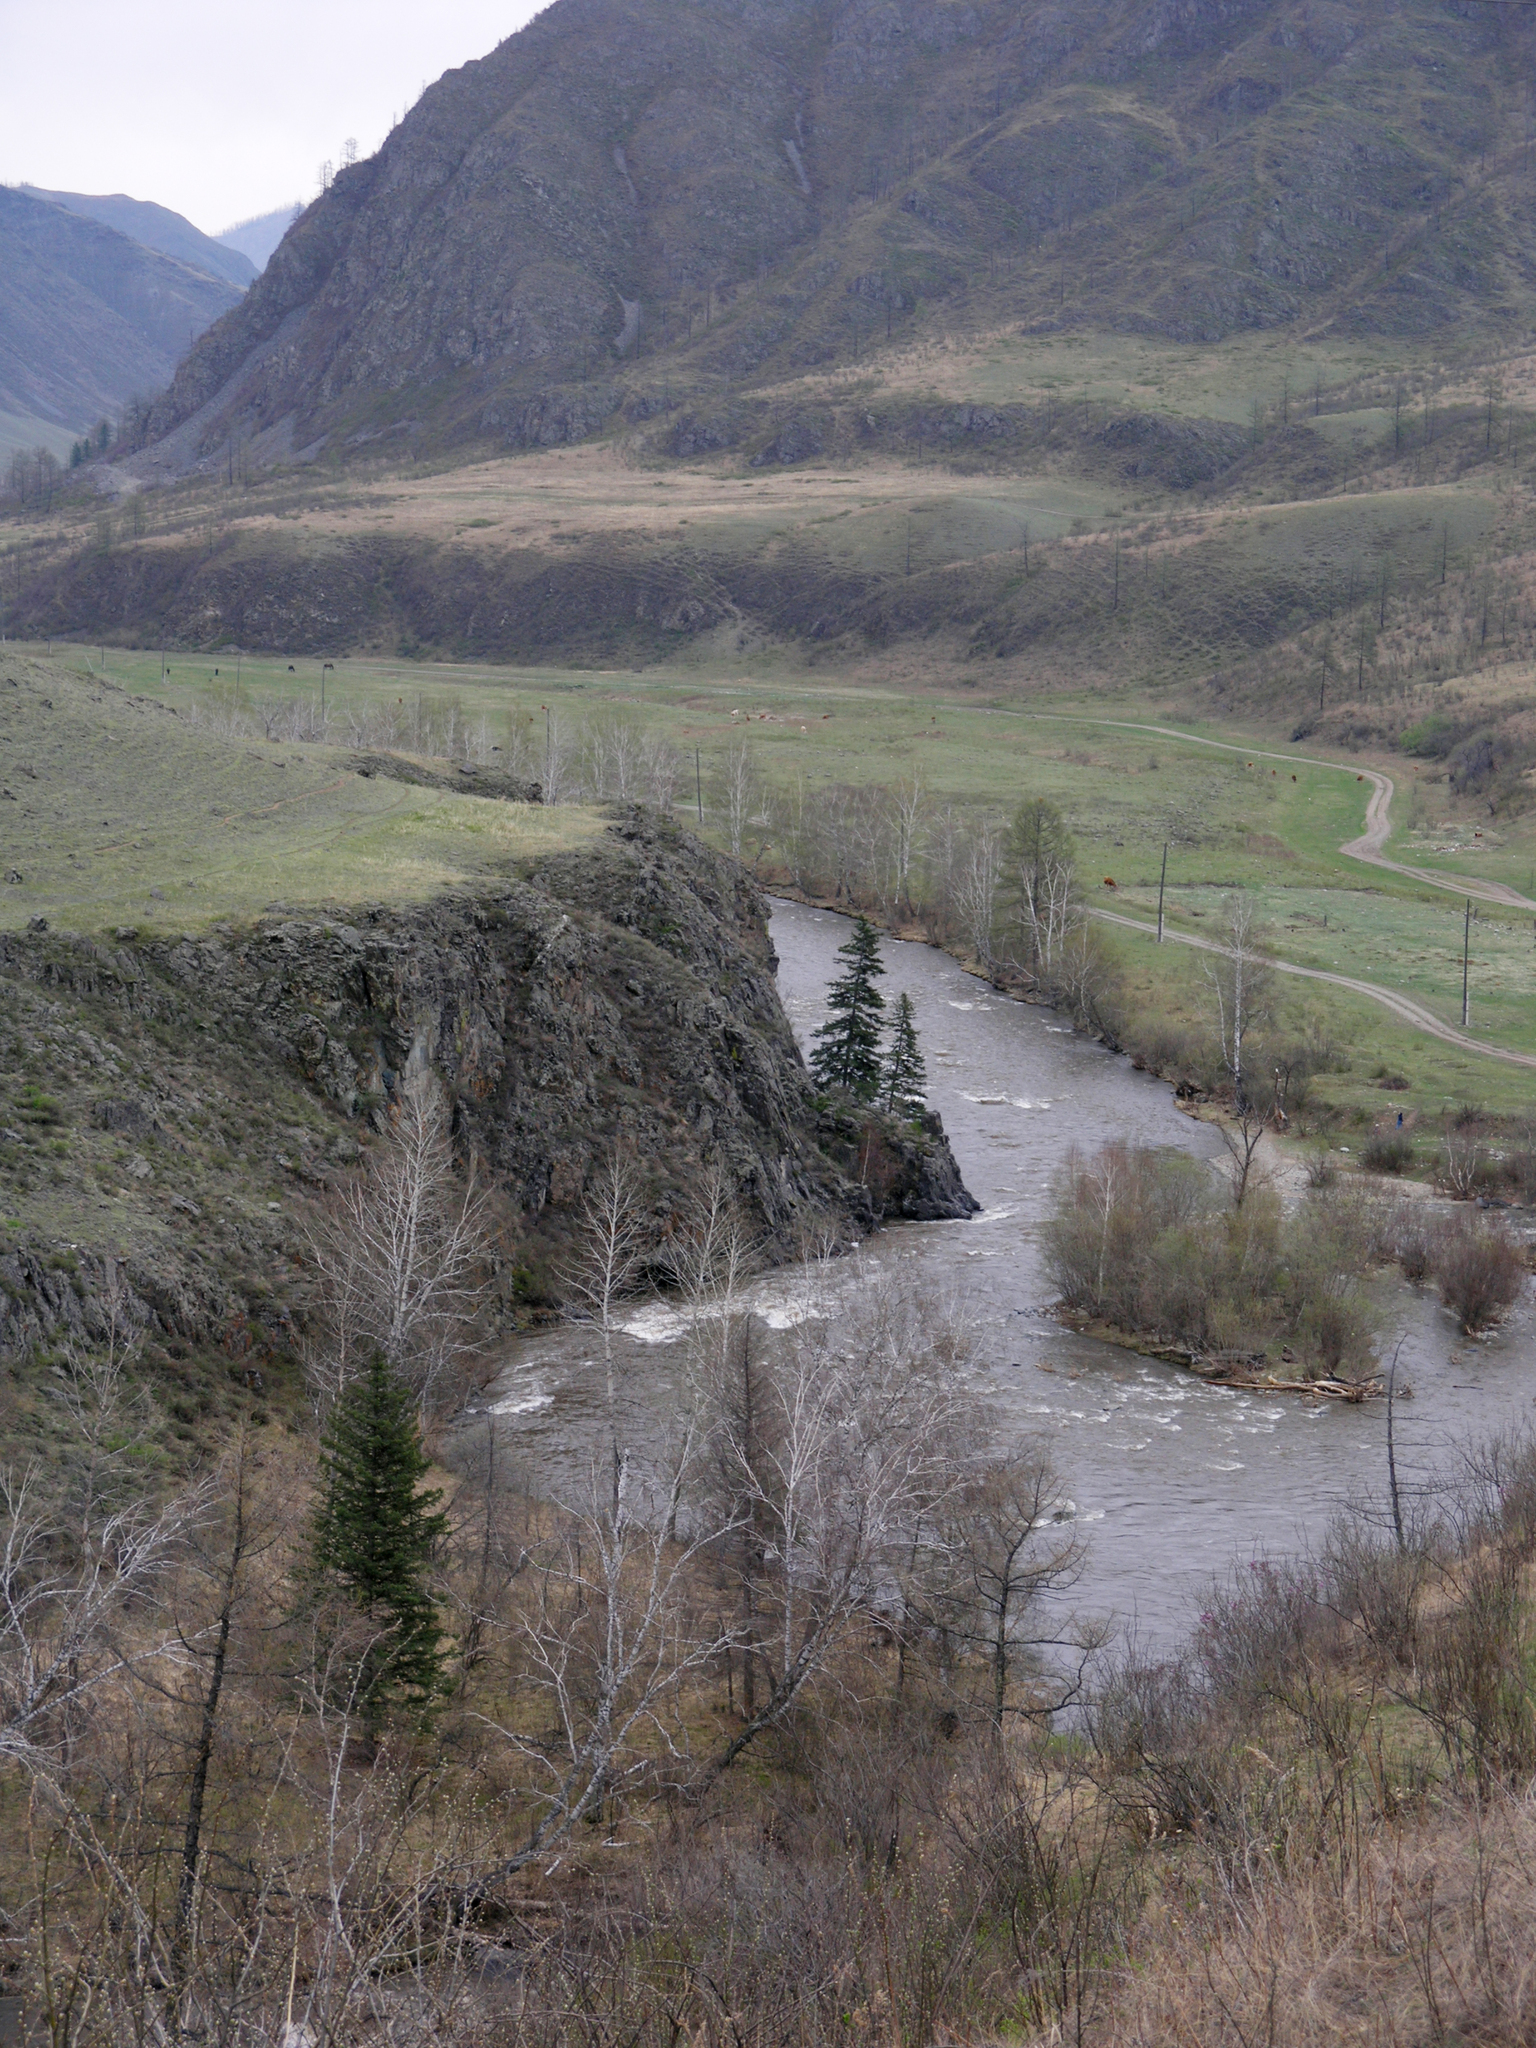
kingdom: Plantae
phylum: Tracheophyta
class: Pinopsida
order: Pinales
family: Pinaceae
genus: Picea
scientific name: Picea obovata
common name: Siberian spruce
